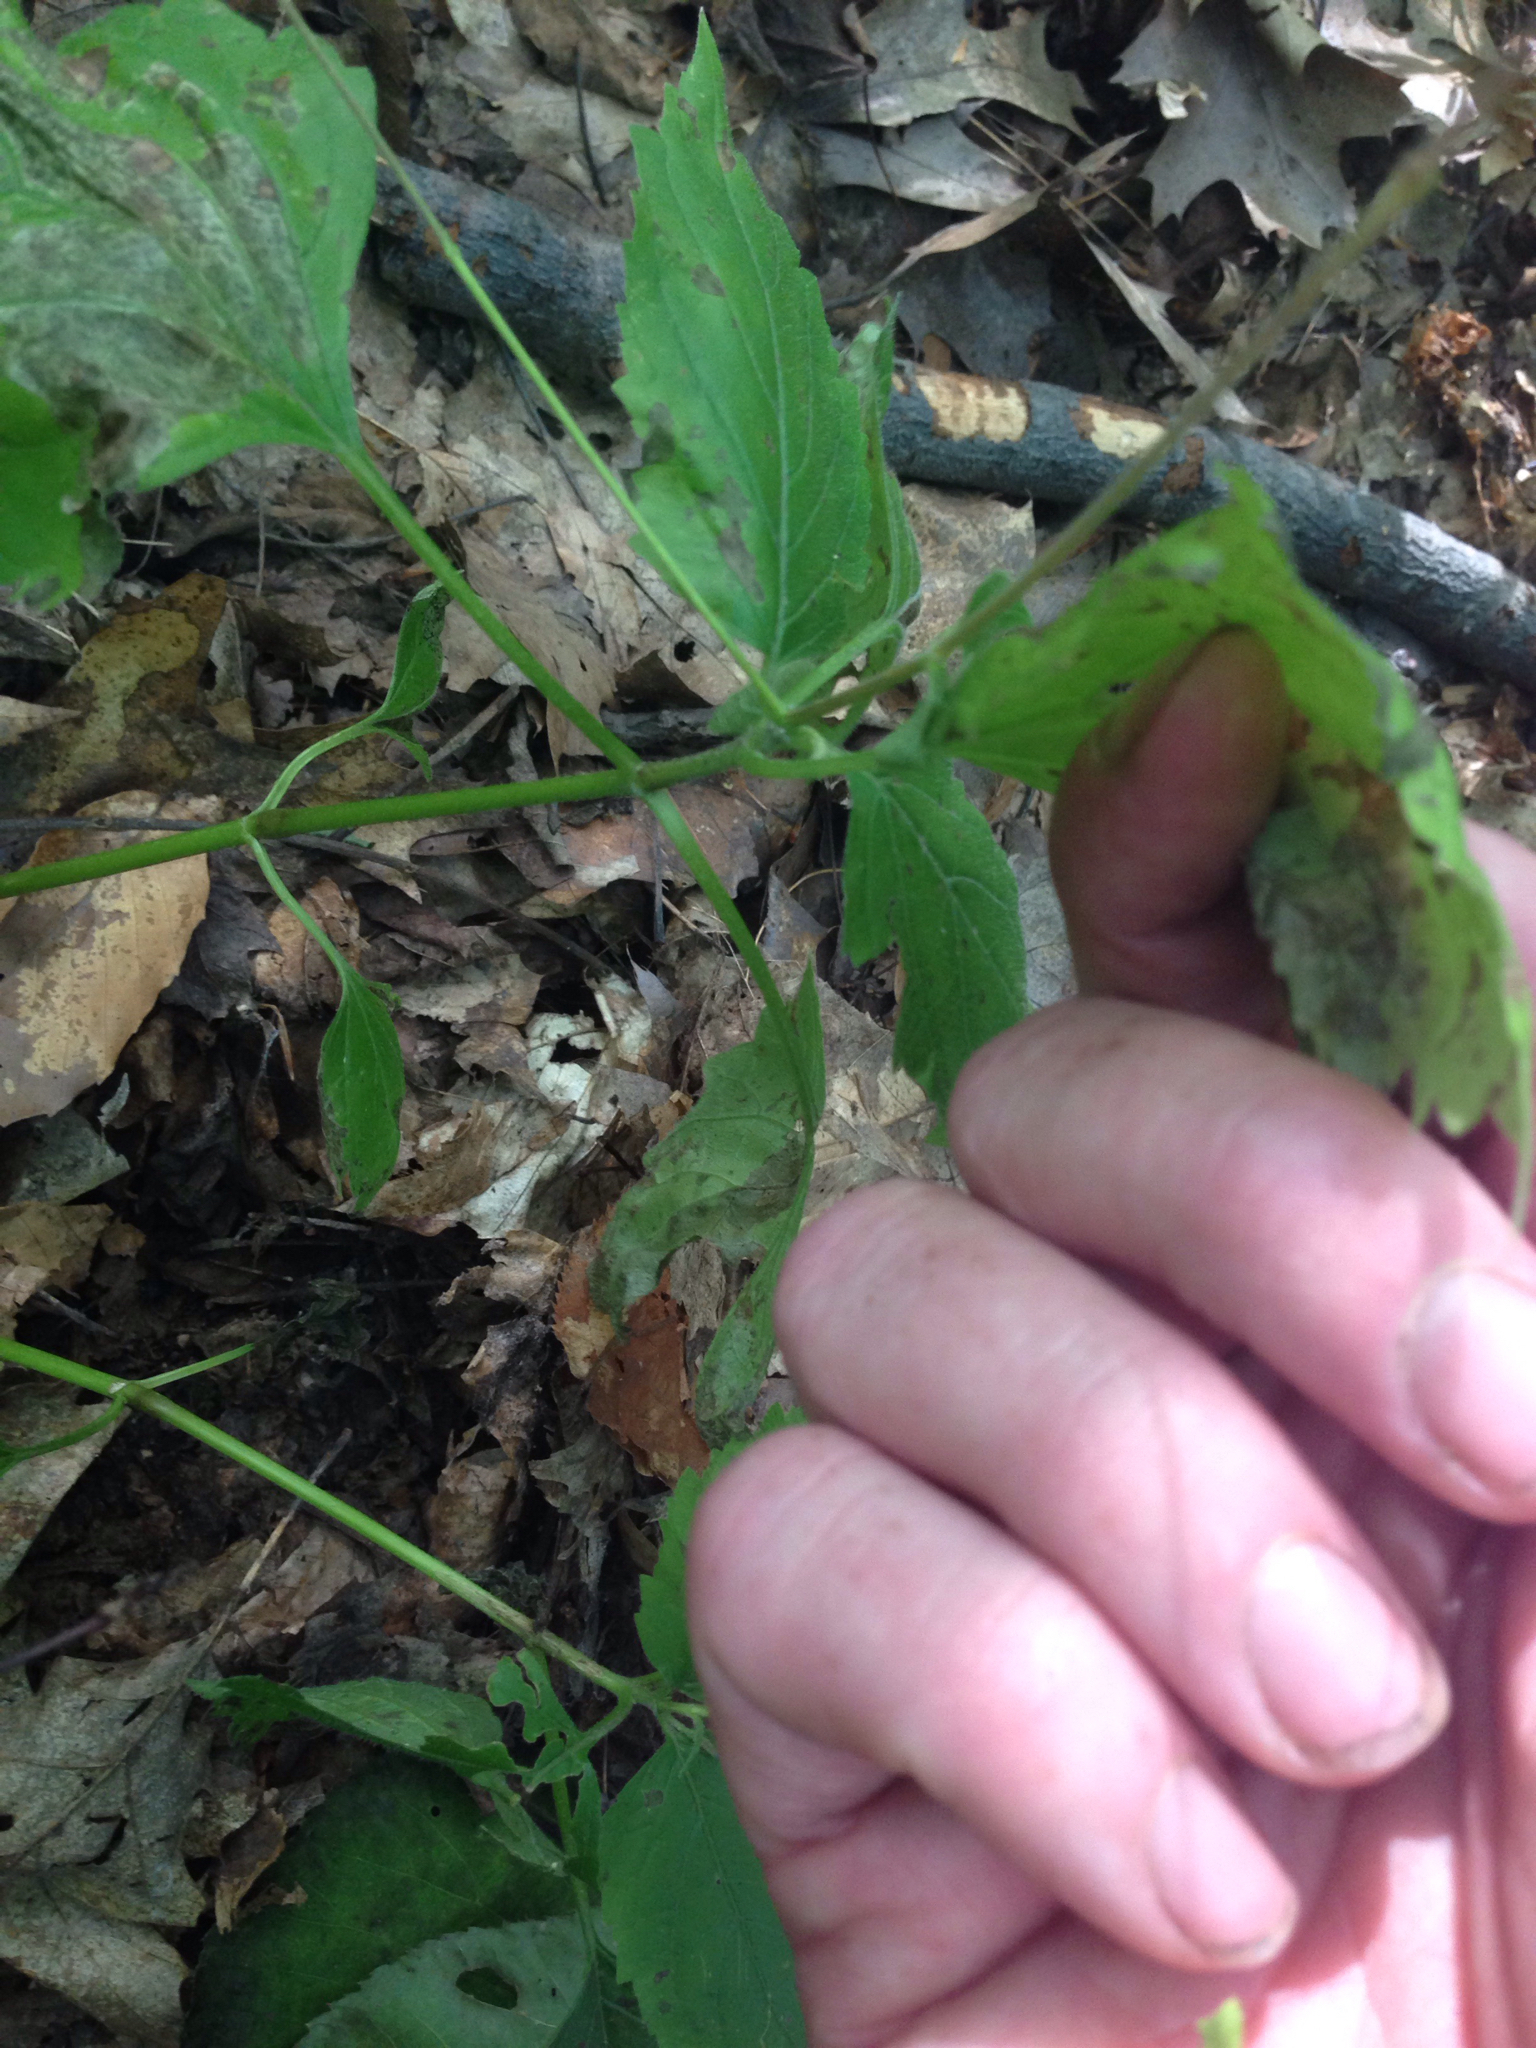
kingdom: Plantae
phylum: Tracheophyta
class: Magnoliopsida
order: Lamiales
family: Phrymaceae
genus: Phryma
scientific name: Phryma leptostachya
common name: American lopseed
